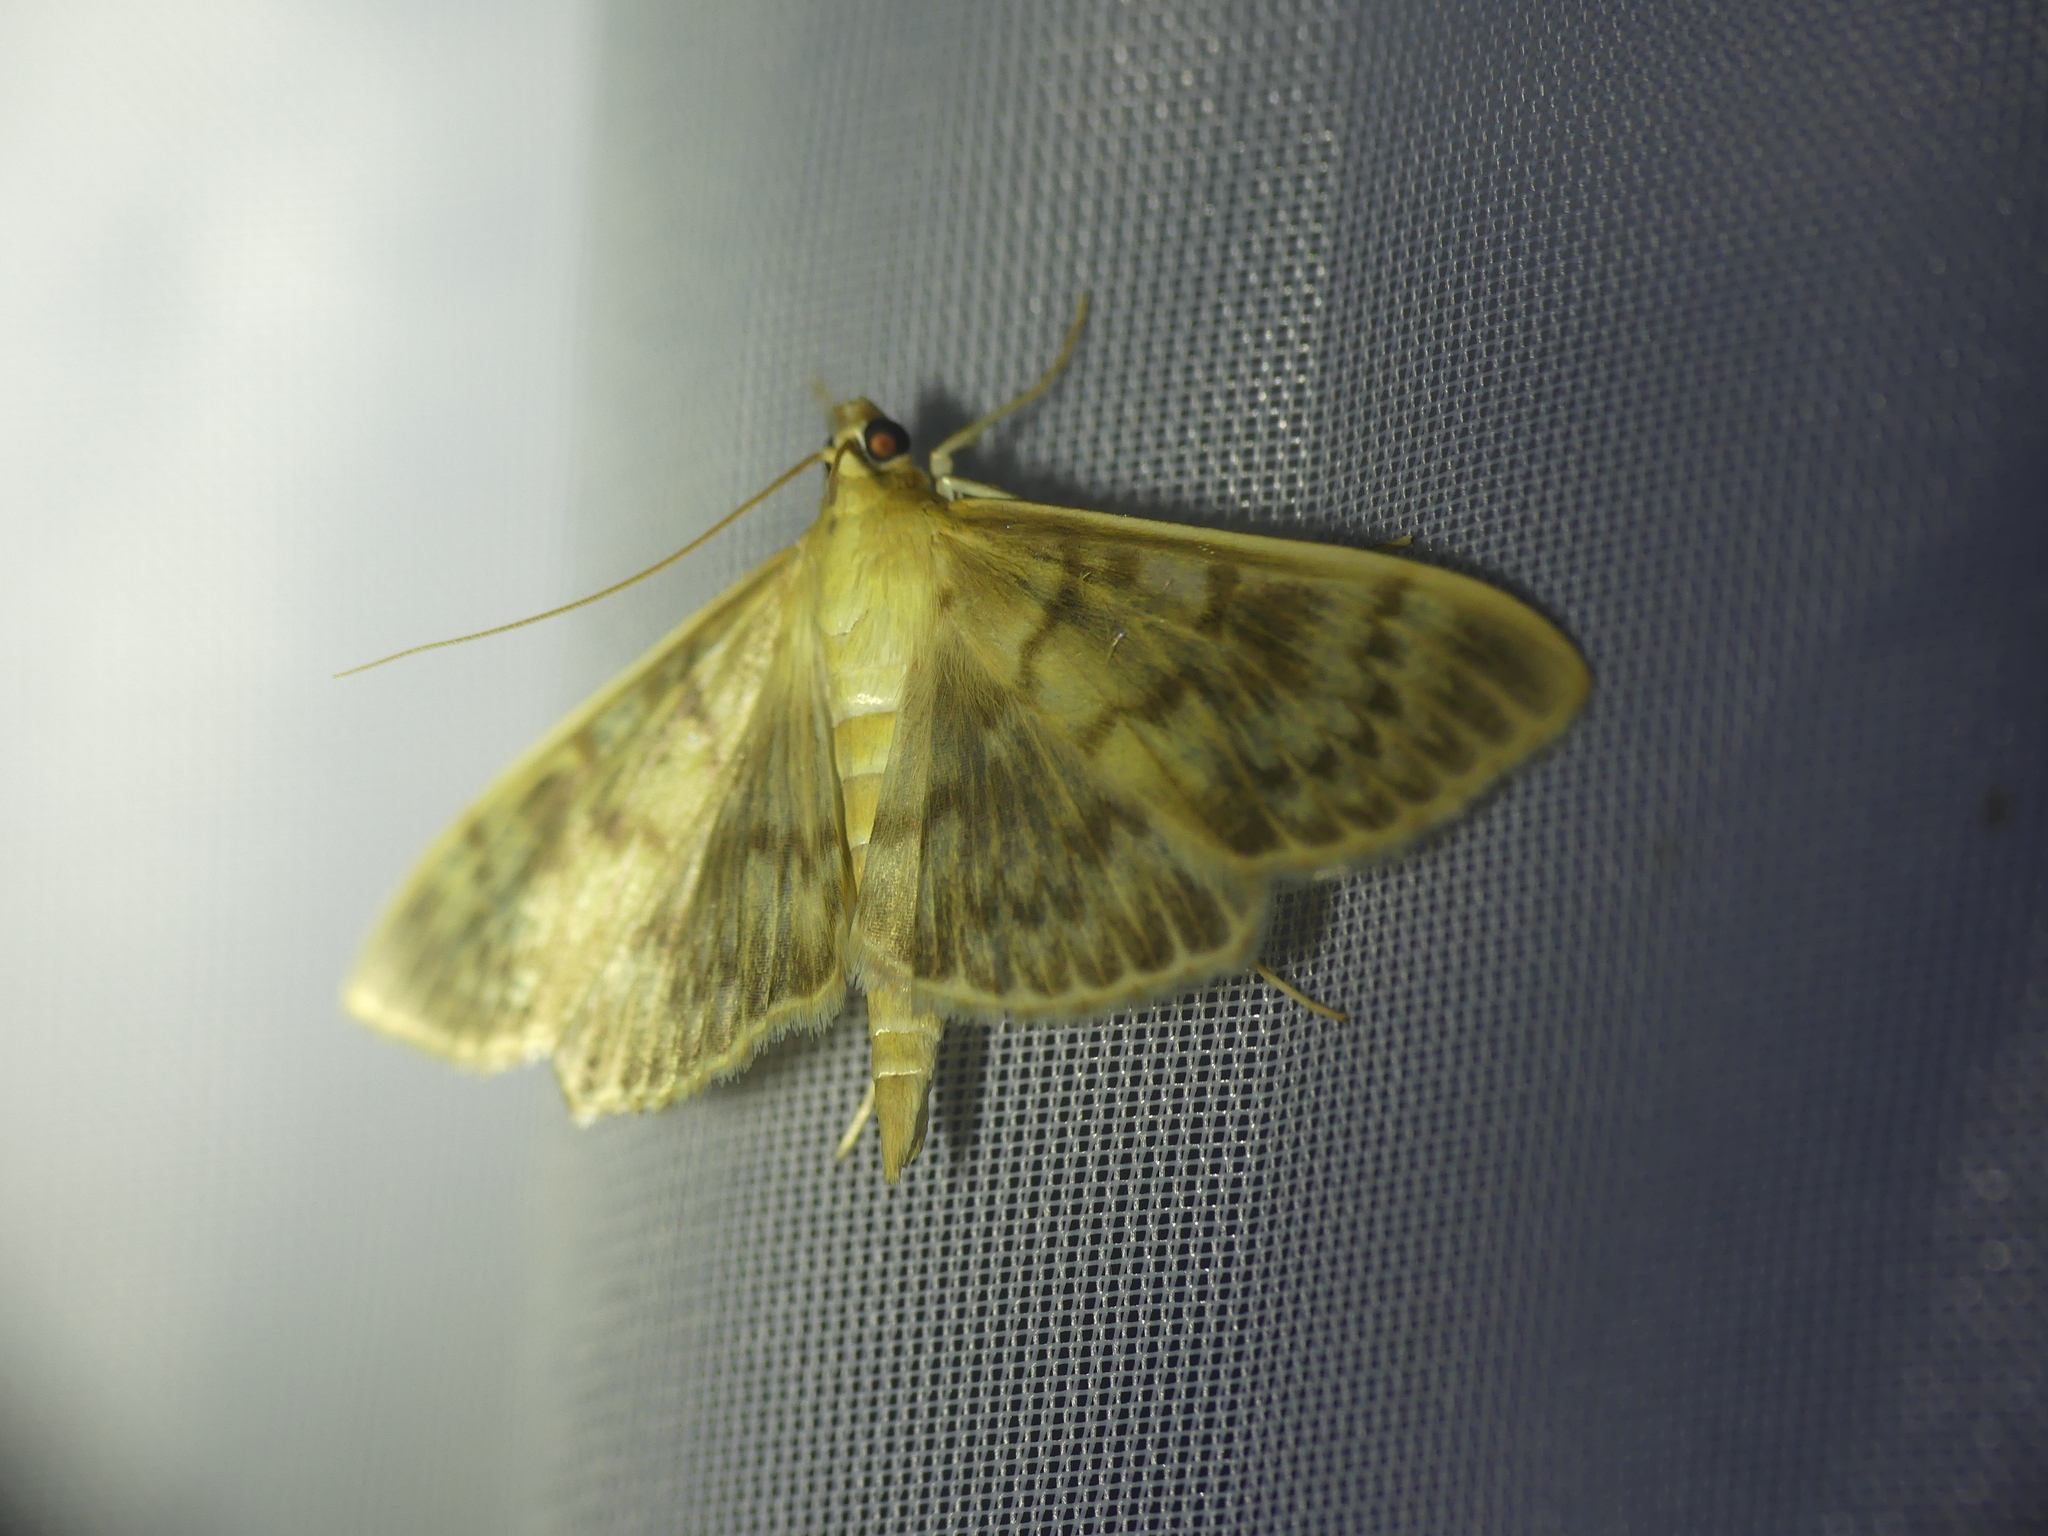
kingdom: Animalia
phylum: Arthropoda
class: Insecta
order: Lepidoptera
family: Crambidae
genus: Patania
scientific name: Patania ruralis
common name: Mother of pearl
